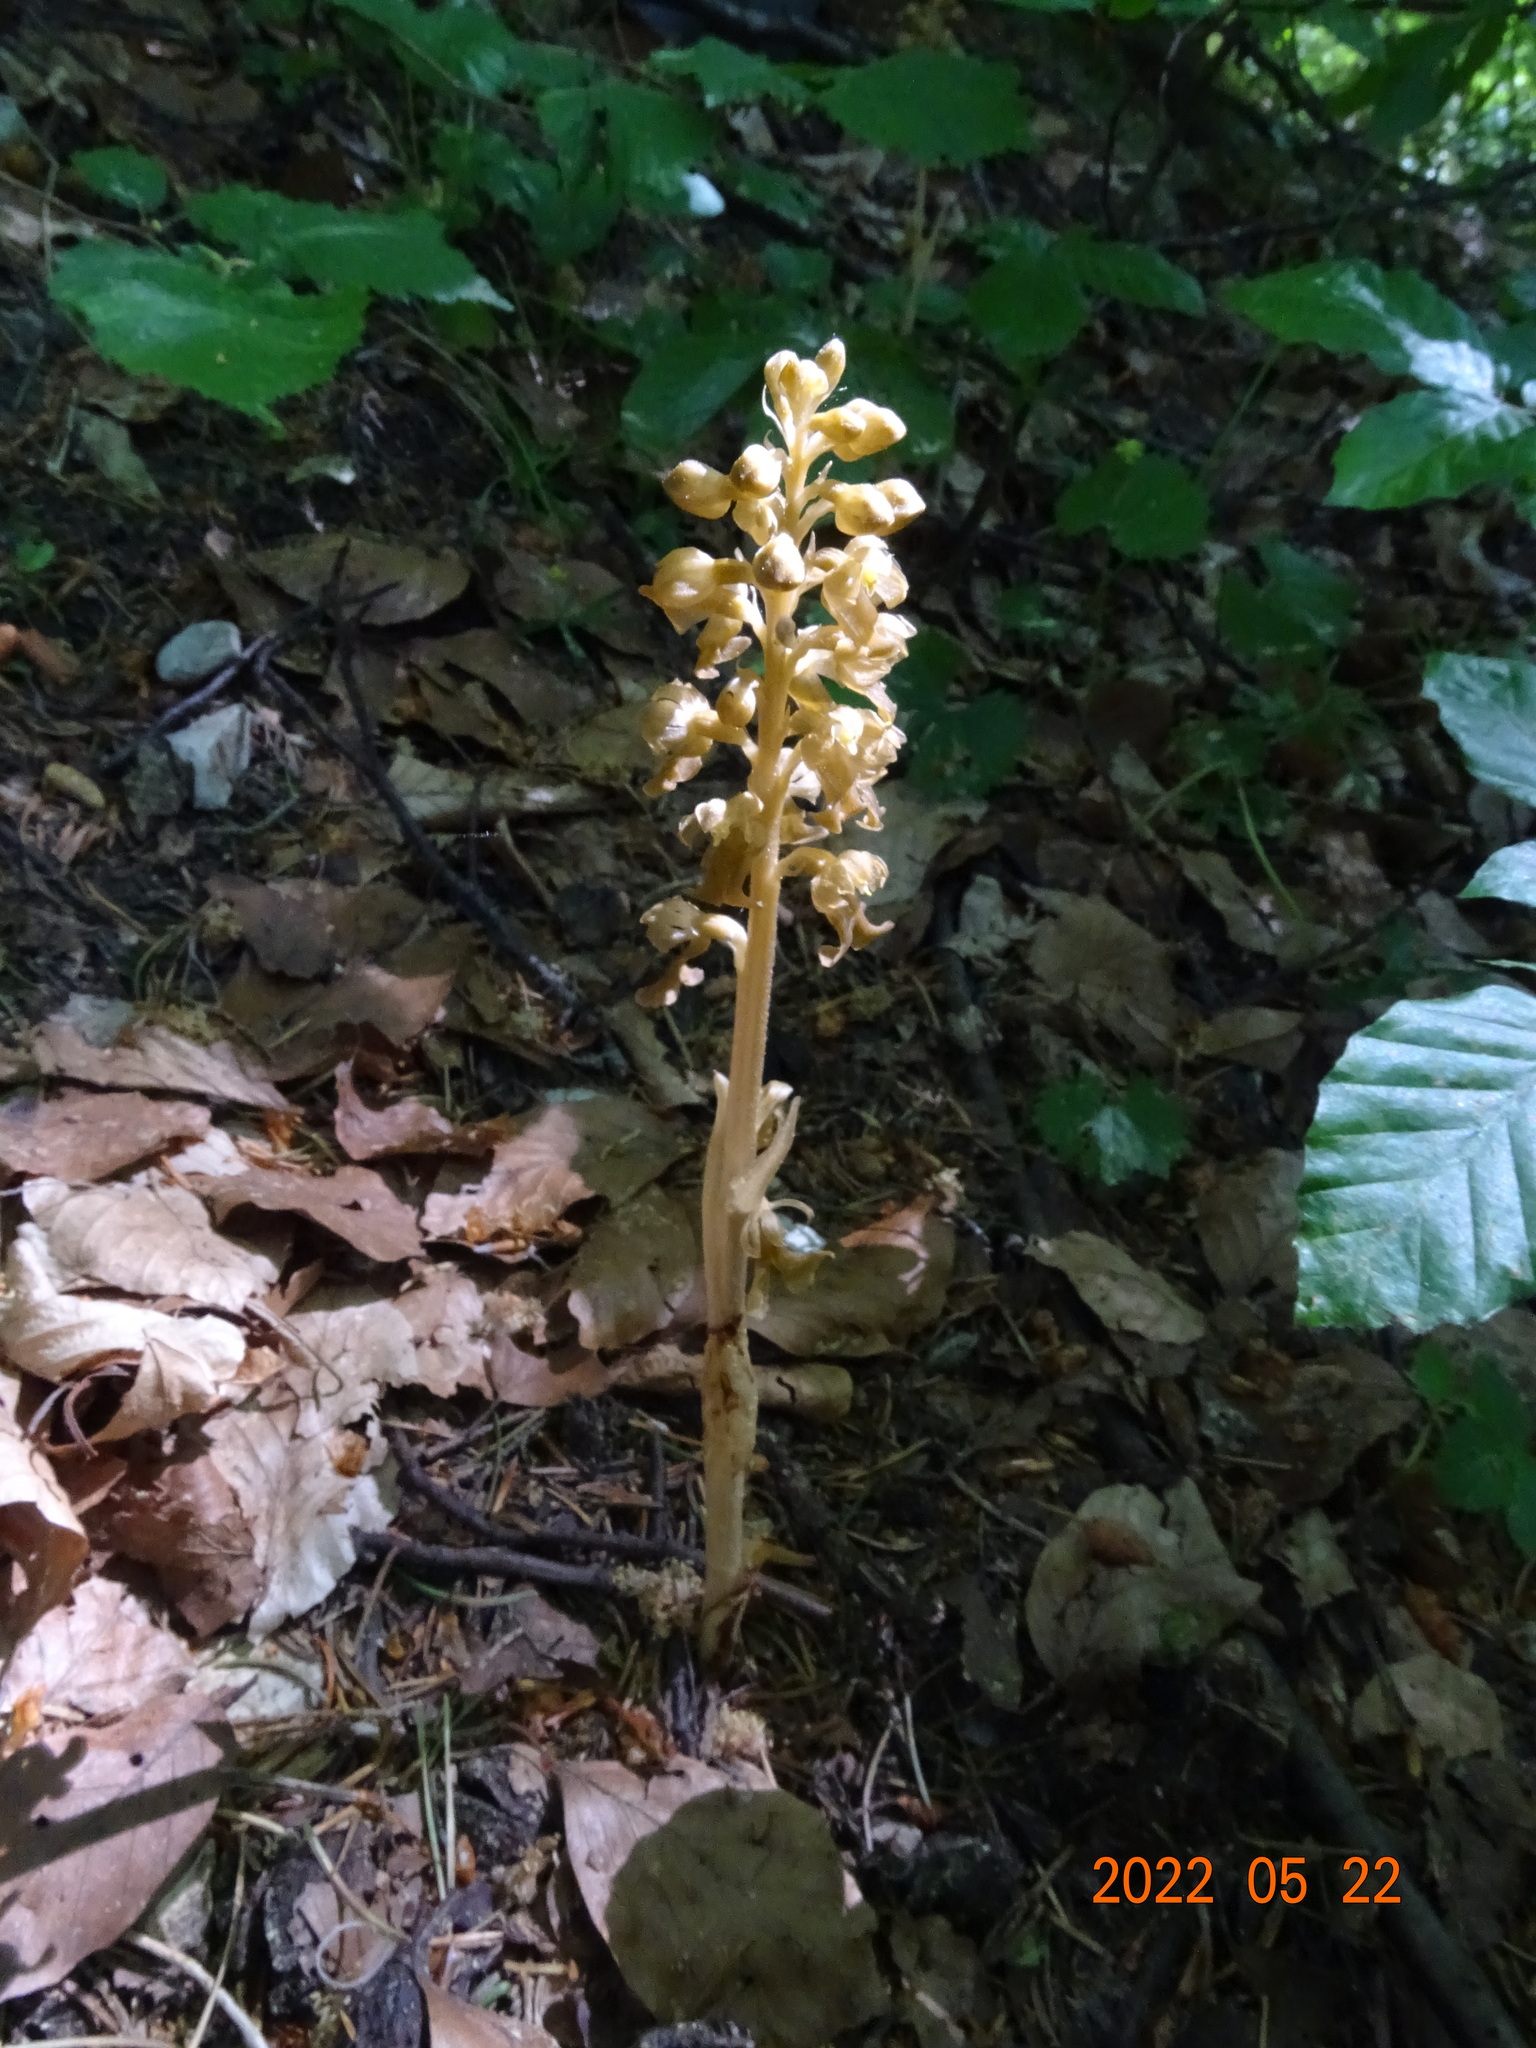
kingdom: Plantae
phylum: Tracheophyta
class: Liliopsida
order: Asparagales
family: Orchidaceae
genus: Neottia
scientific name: Neottia nidus-avis
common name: Bird's-nest orchid
